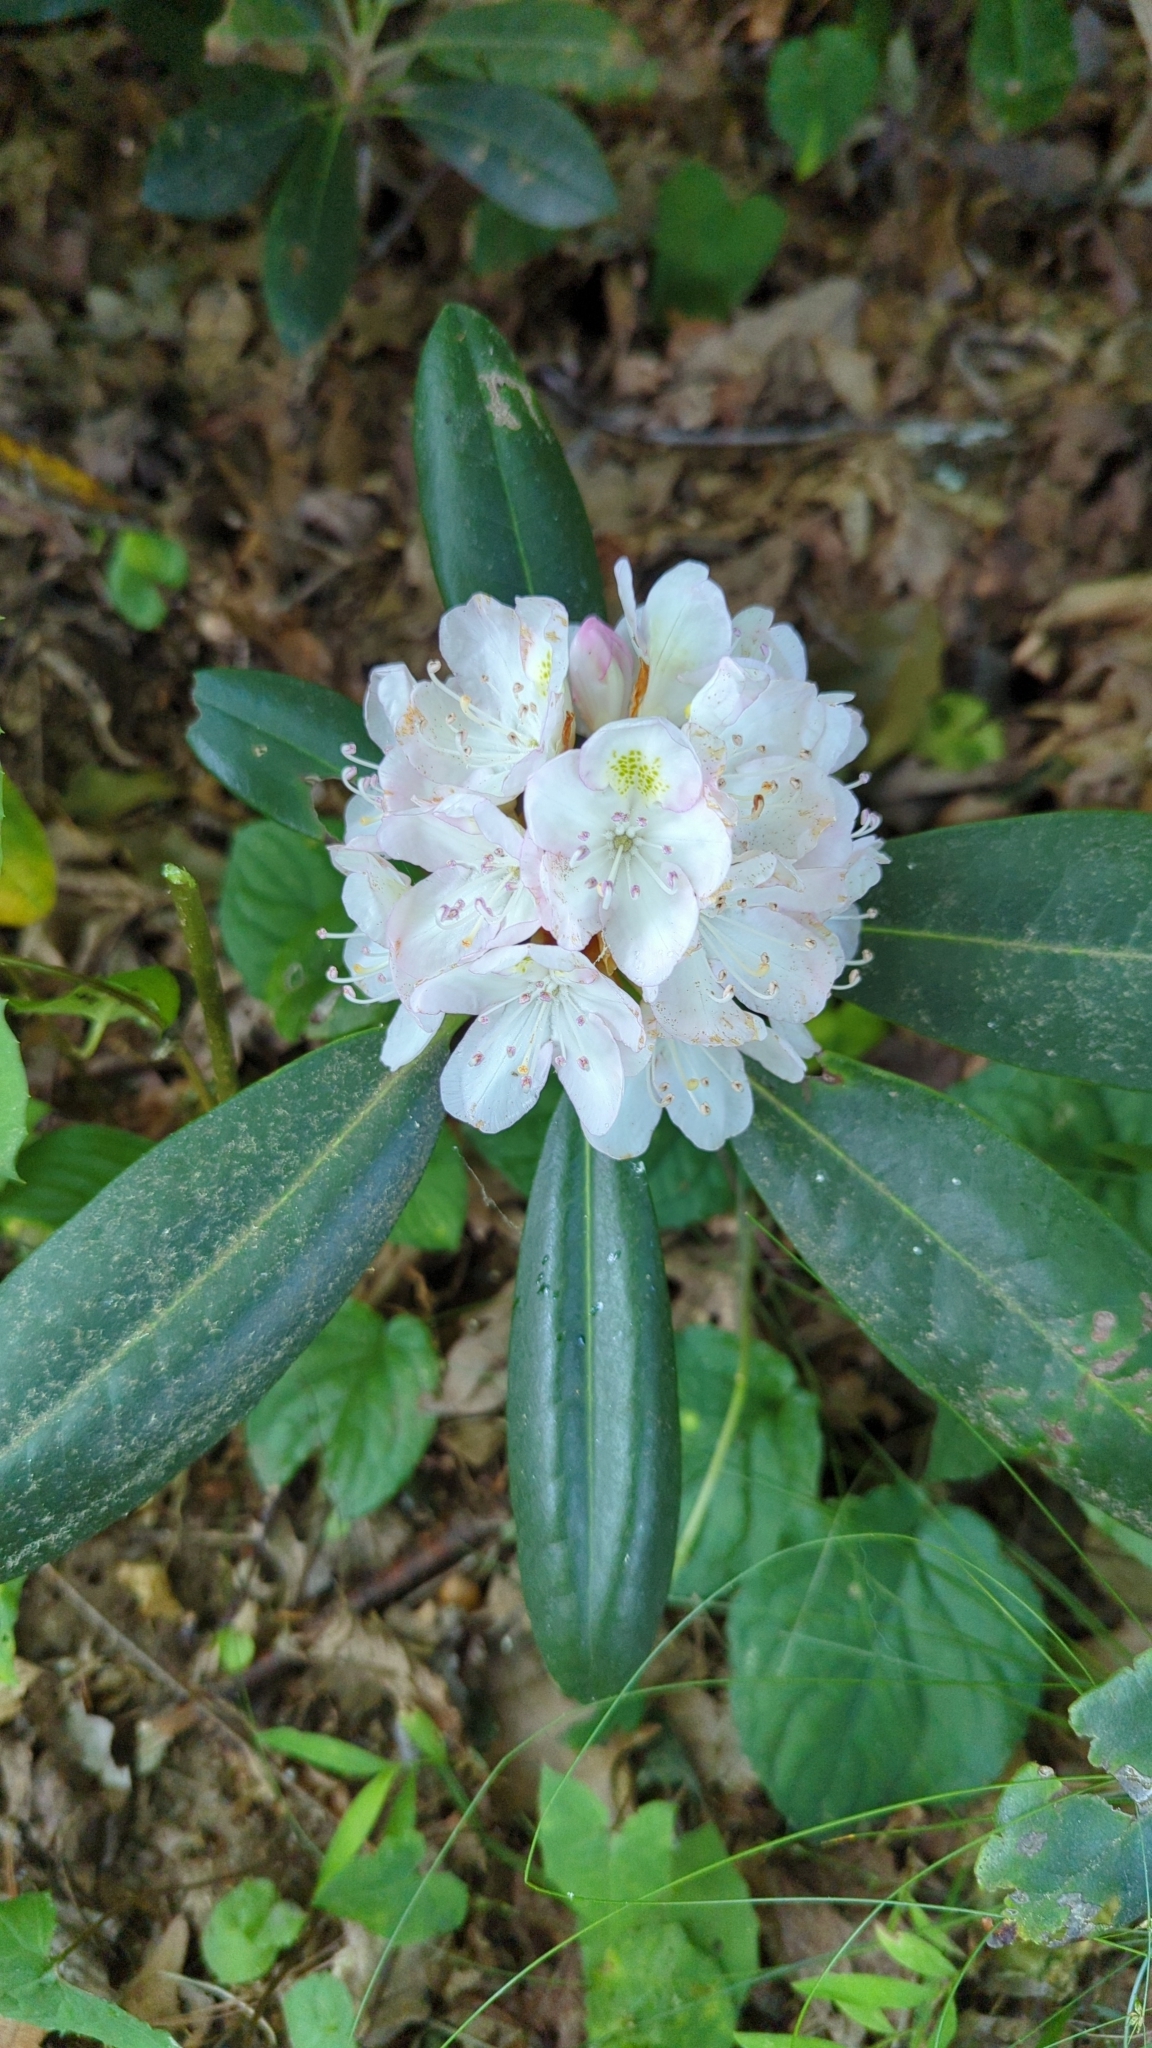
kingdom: Plantae
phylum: Tracheophyta
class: Magnoliopsida
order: Ericales
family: Ericaceae
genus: Rhododendron
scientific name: Rhododendron maximum
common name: Great rhododendron
